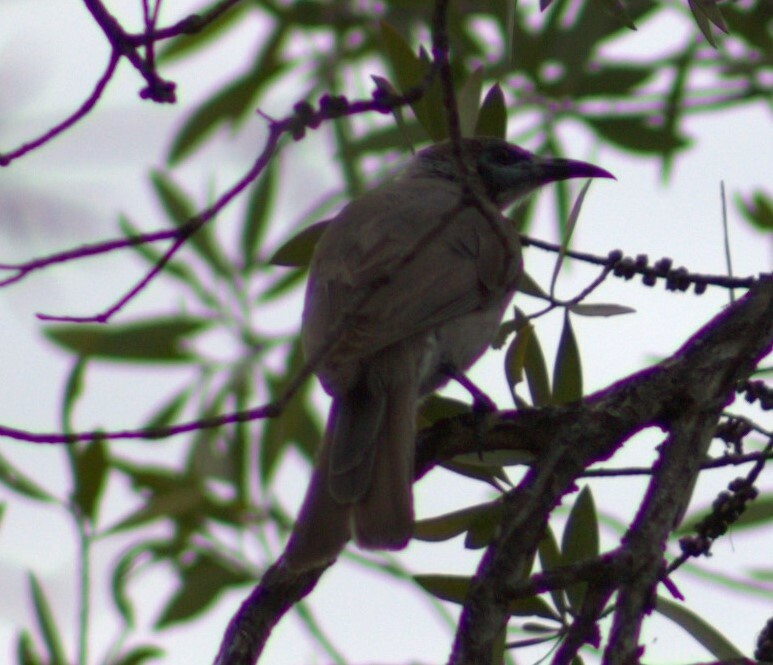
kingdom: Animalia
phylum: Chordata
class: Aves
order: Passeriformes
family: Meliphagidae
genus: Philemon
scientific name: Philemon citreogularis
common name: Little friarbird
